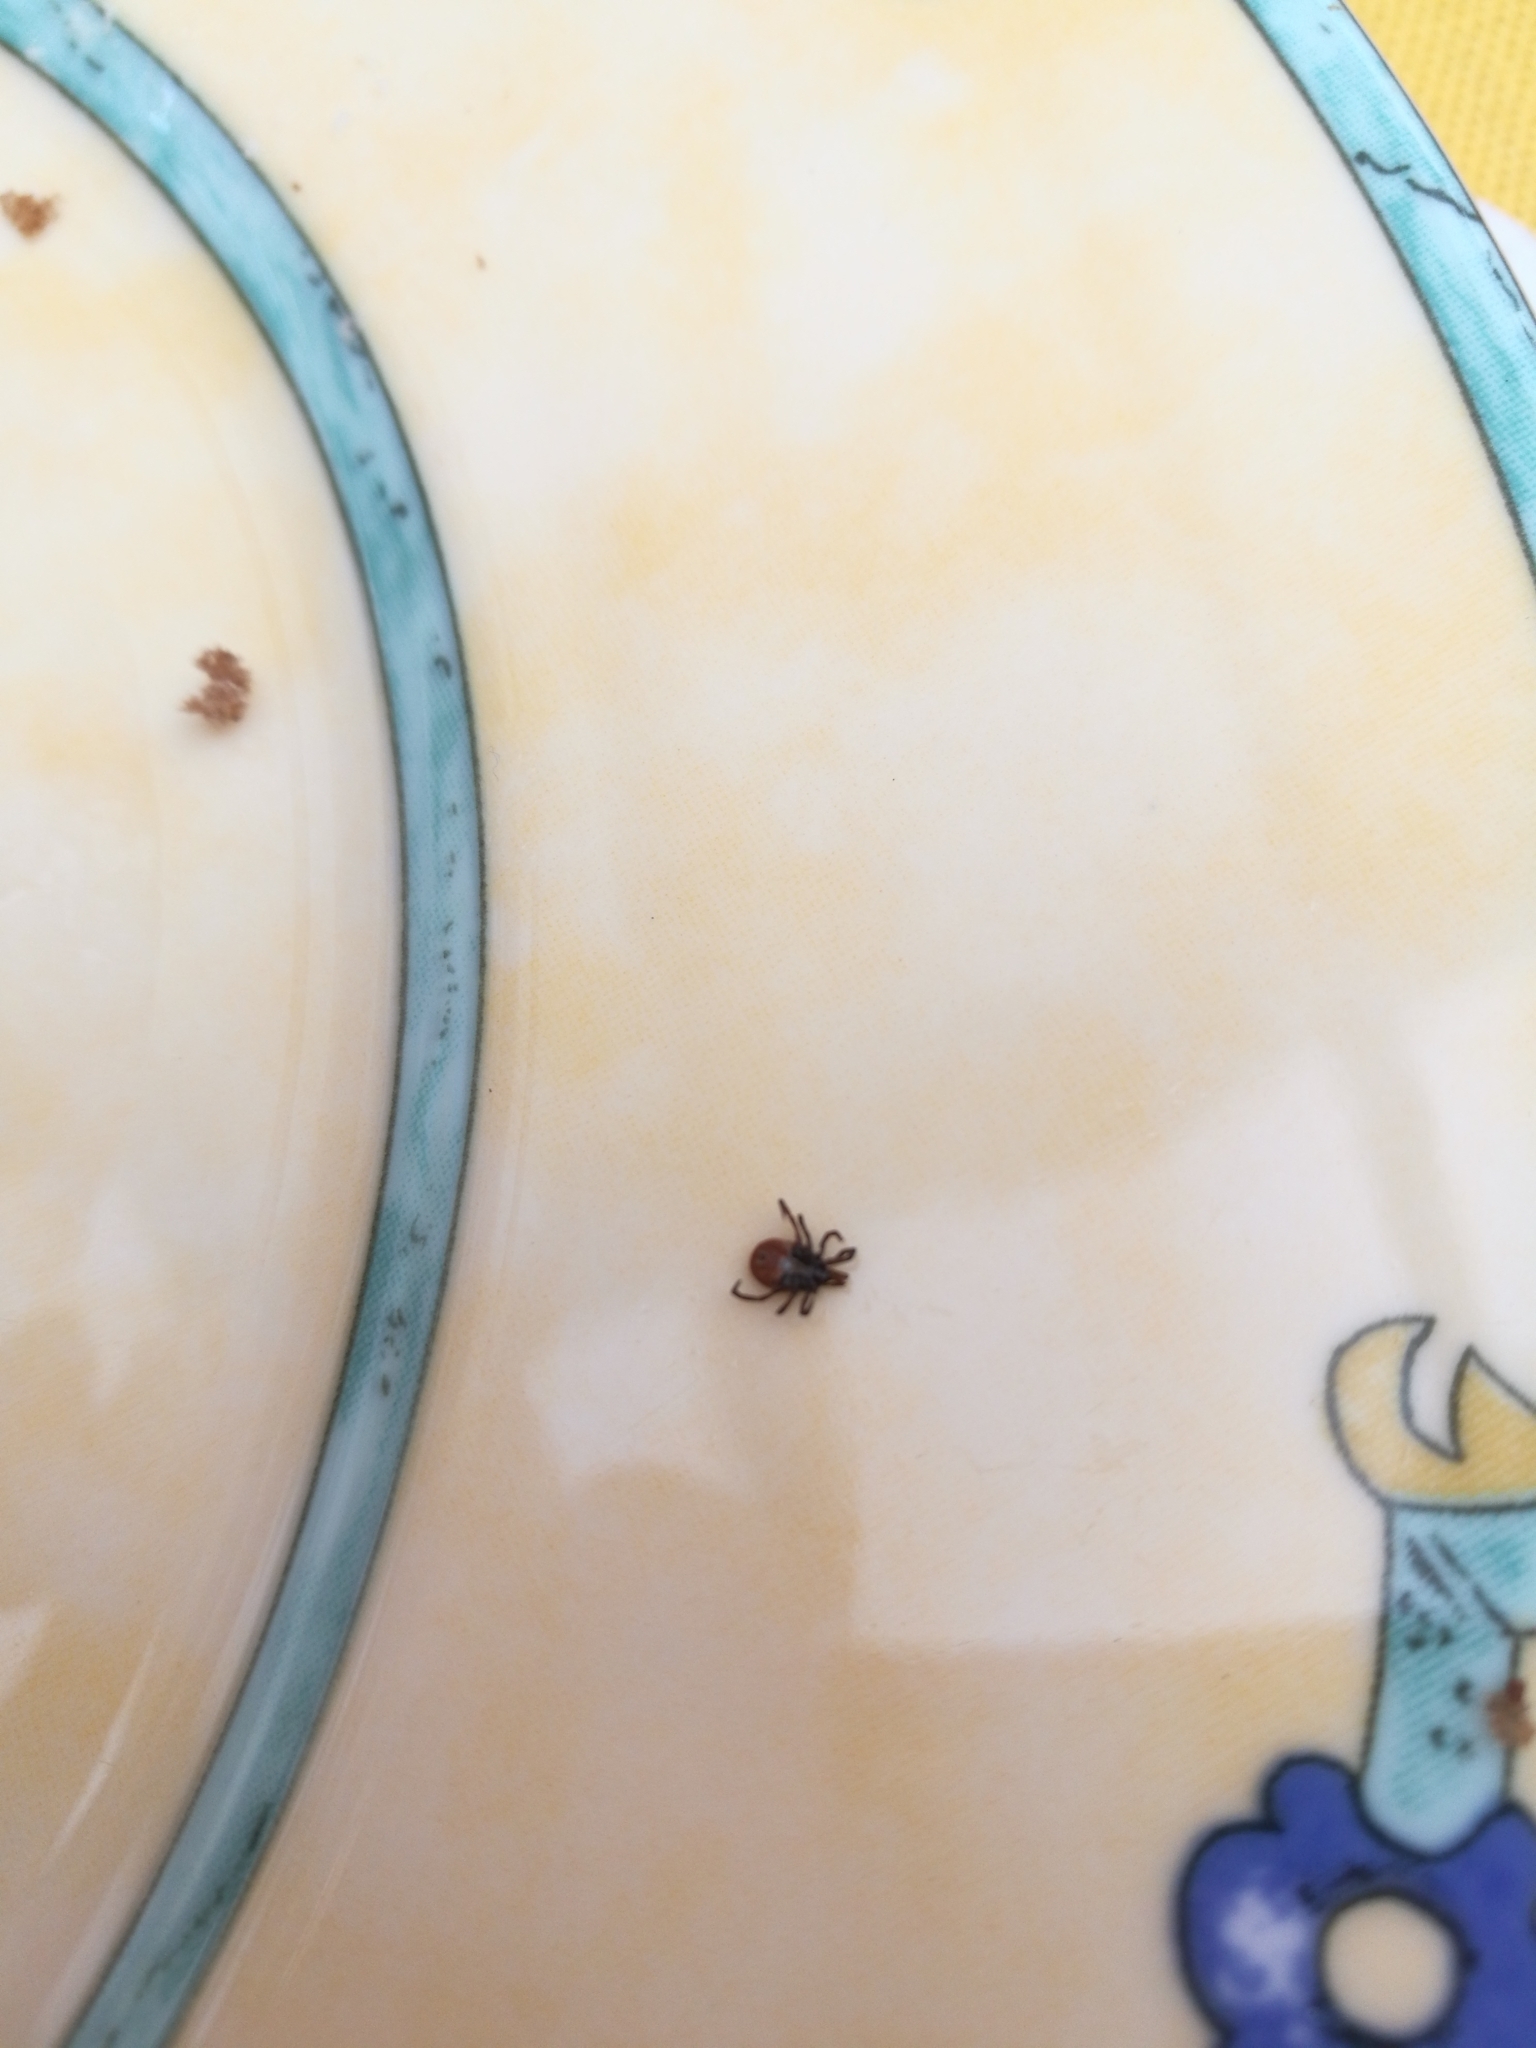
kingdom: Animalia
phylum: Arthropoda
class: Arachnida
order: Ixodida
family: Ixodidae
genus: Ixodes
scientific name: Ixodes ricinus
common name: Castor bean tick
